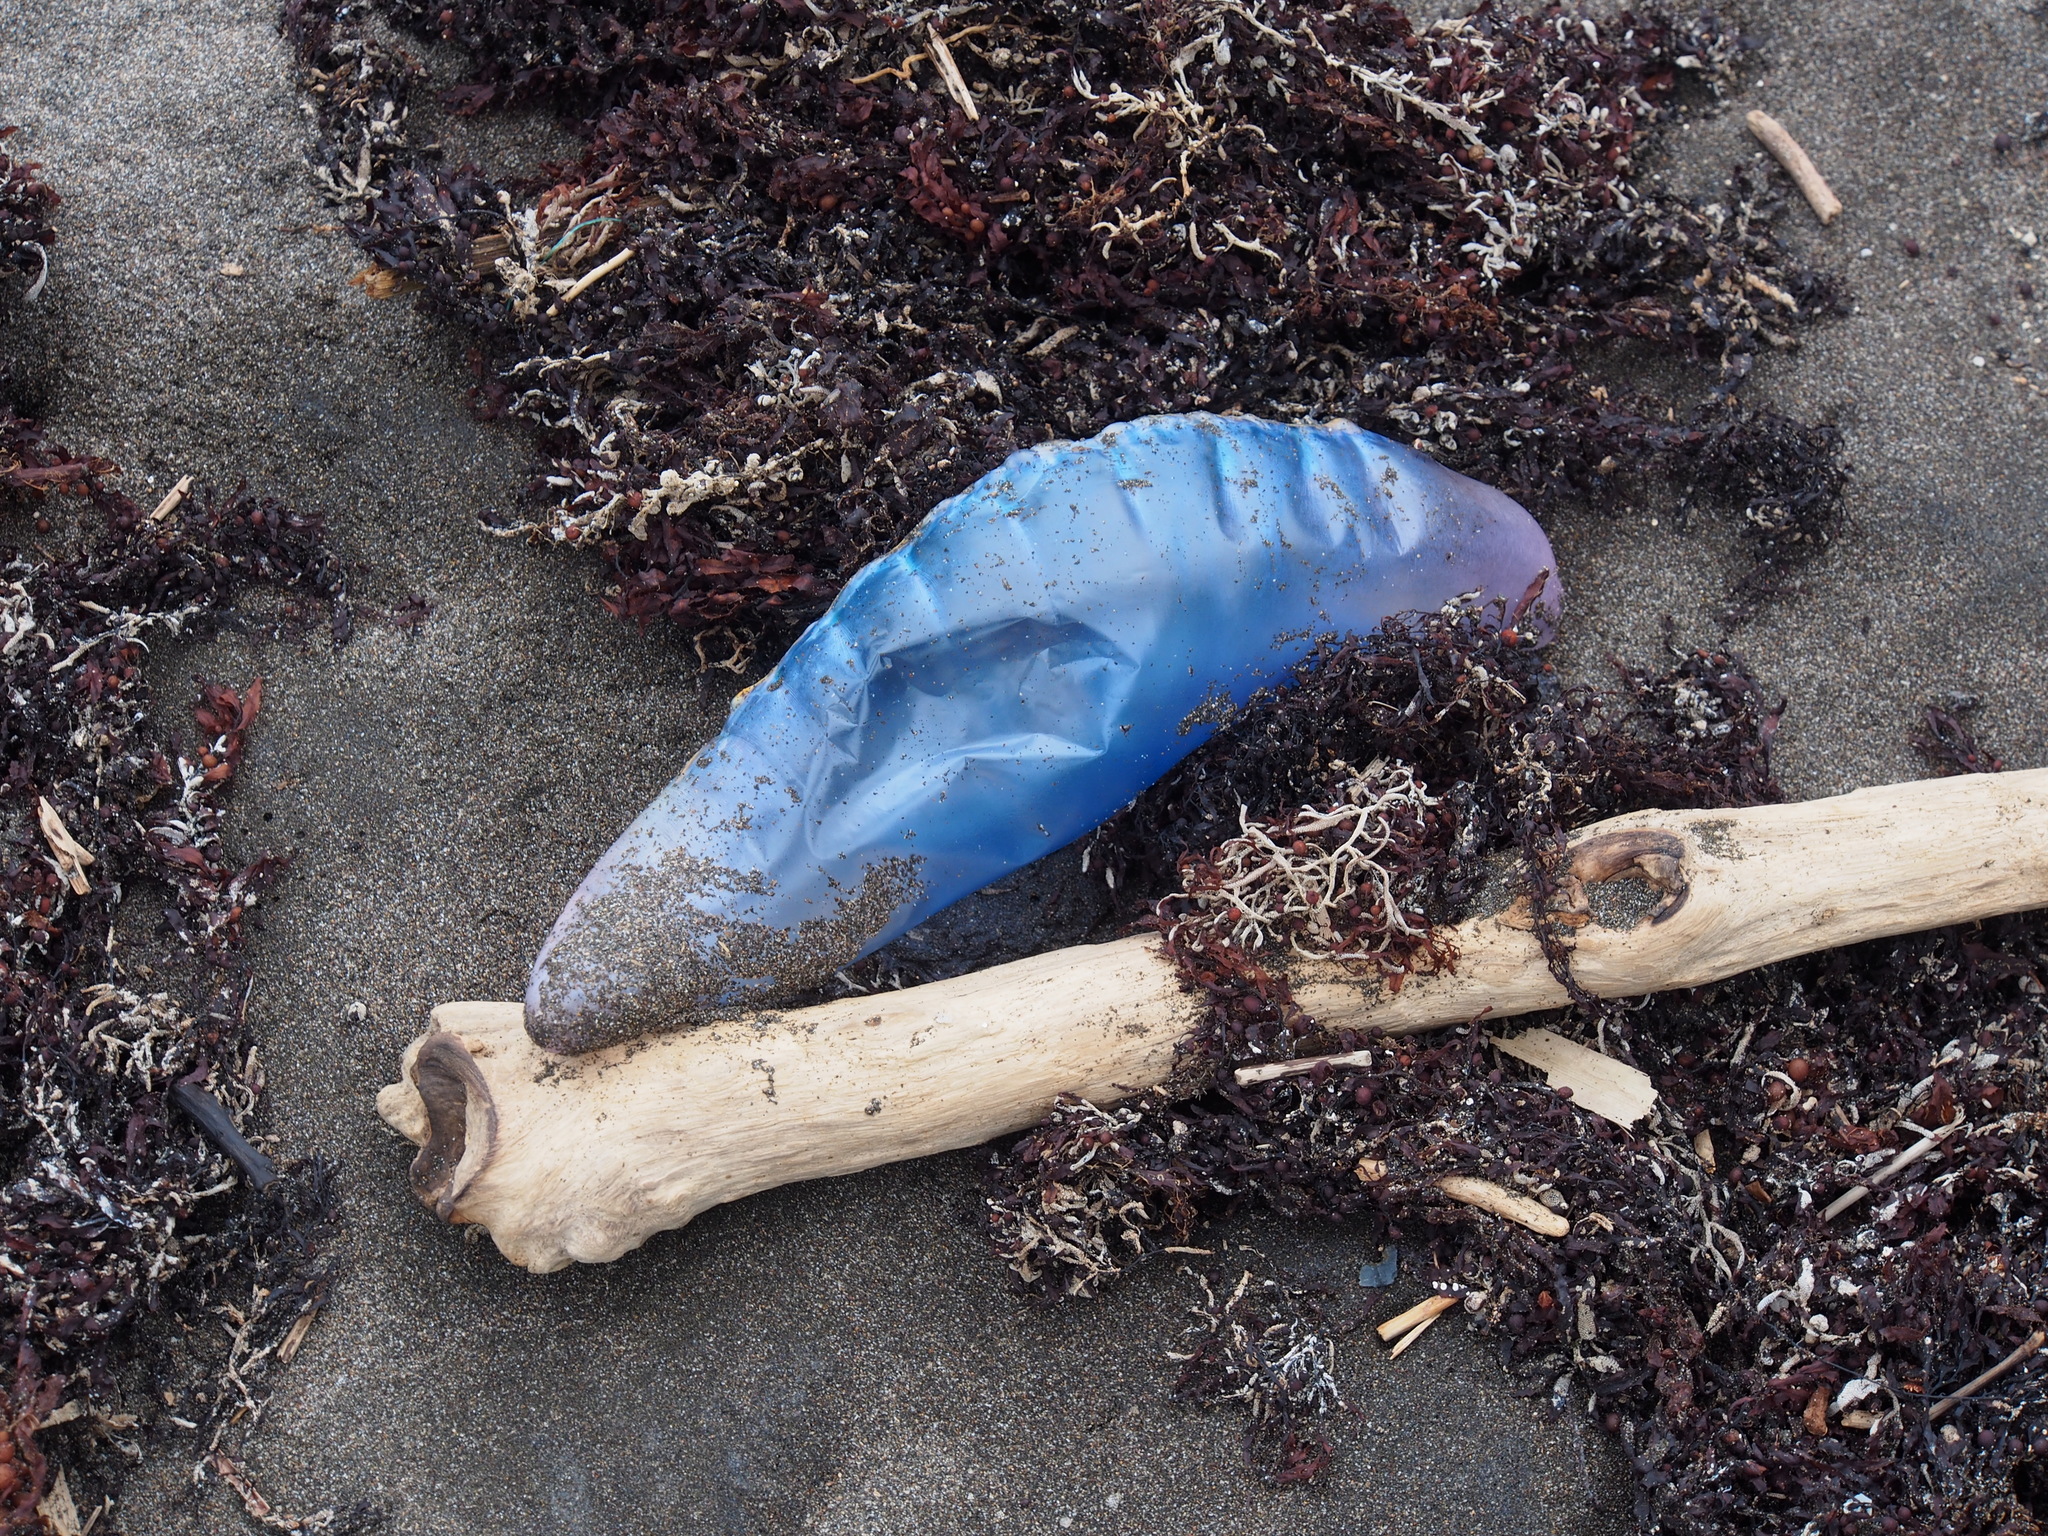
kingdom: Animalia
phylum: Cnidaria
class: Hydrozoa
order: Siphonophorae
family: Physaliidae
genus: Physalia
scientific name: Physalia physalis
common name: Portuguese man-of-war
